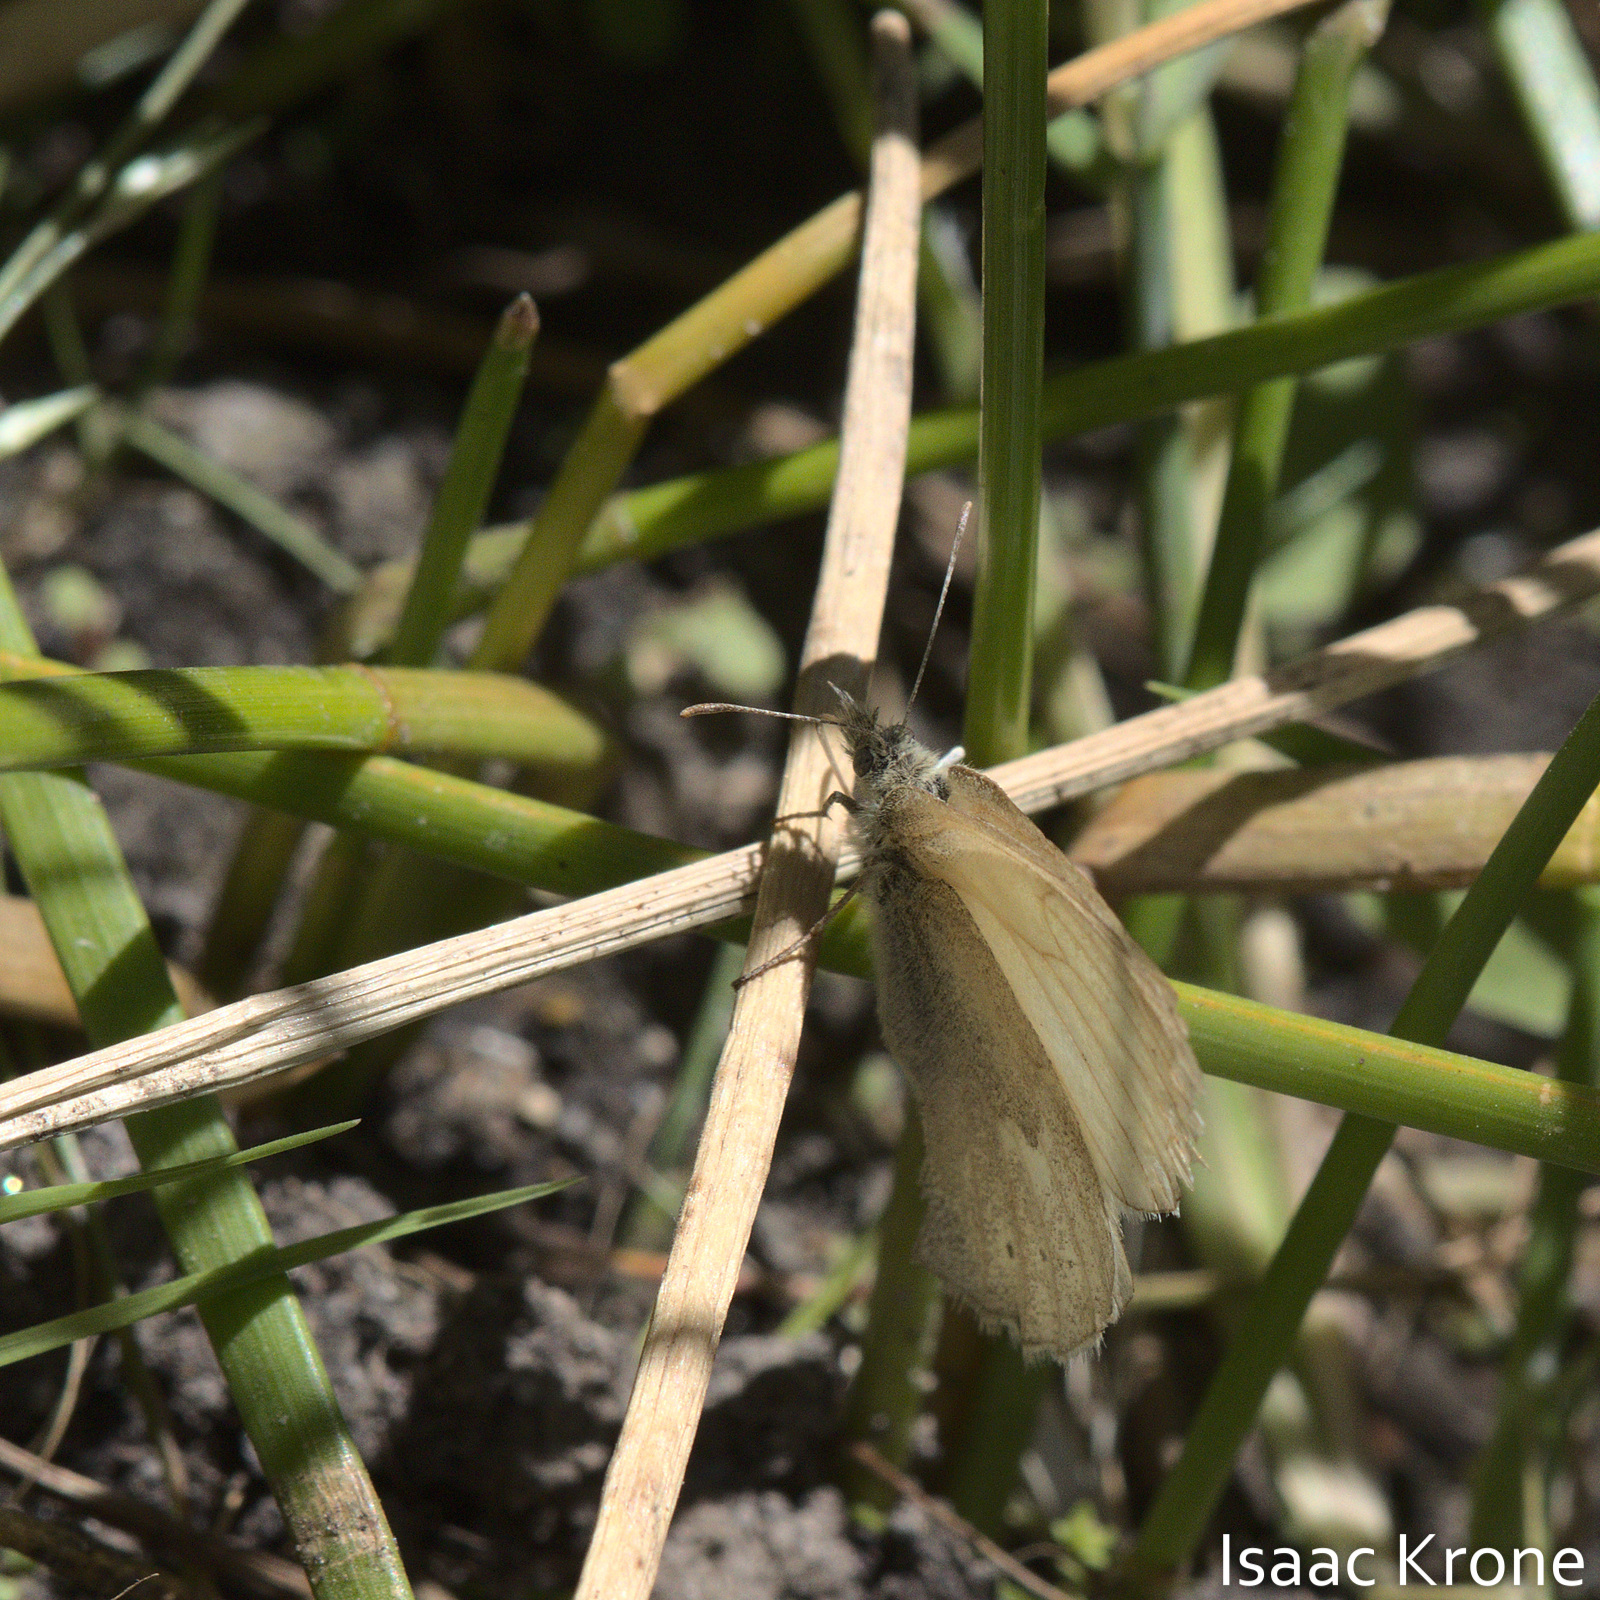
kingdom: Animalia
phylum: Arthropoda
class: Insecta
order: Lepidoptera
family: Nymphalidae
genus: Coenonympha
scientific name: Coenonympha california
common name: Common ringlet
